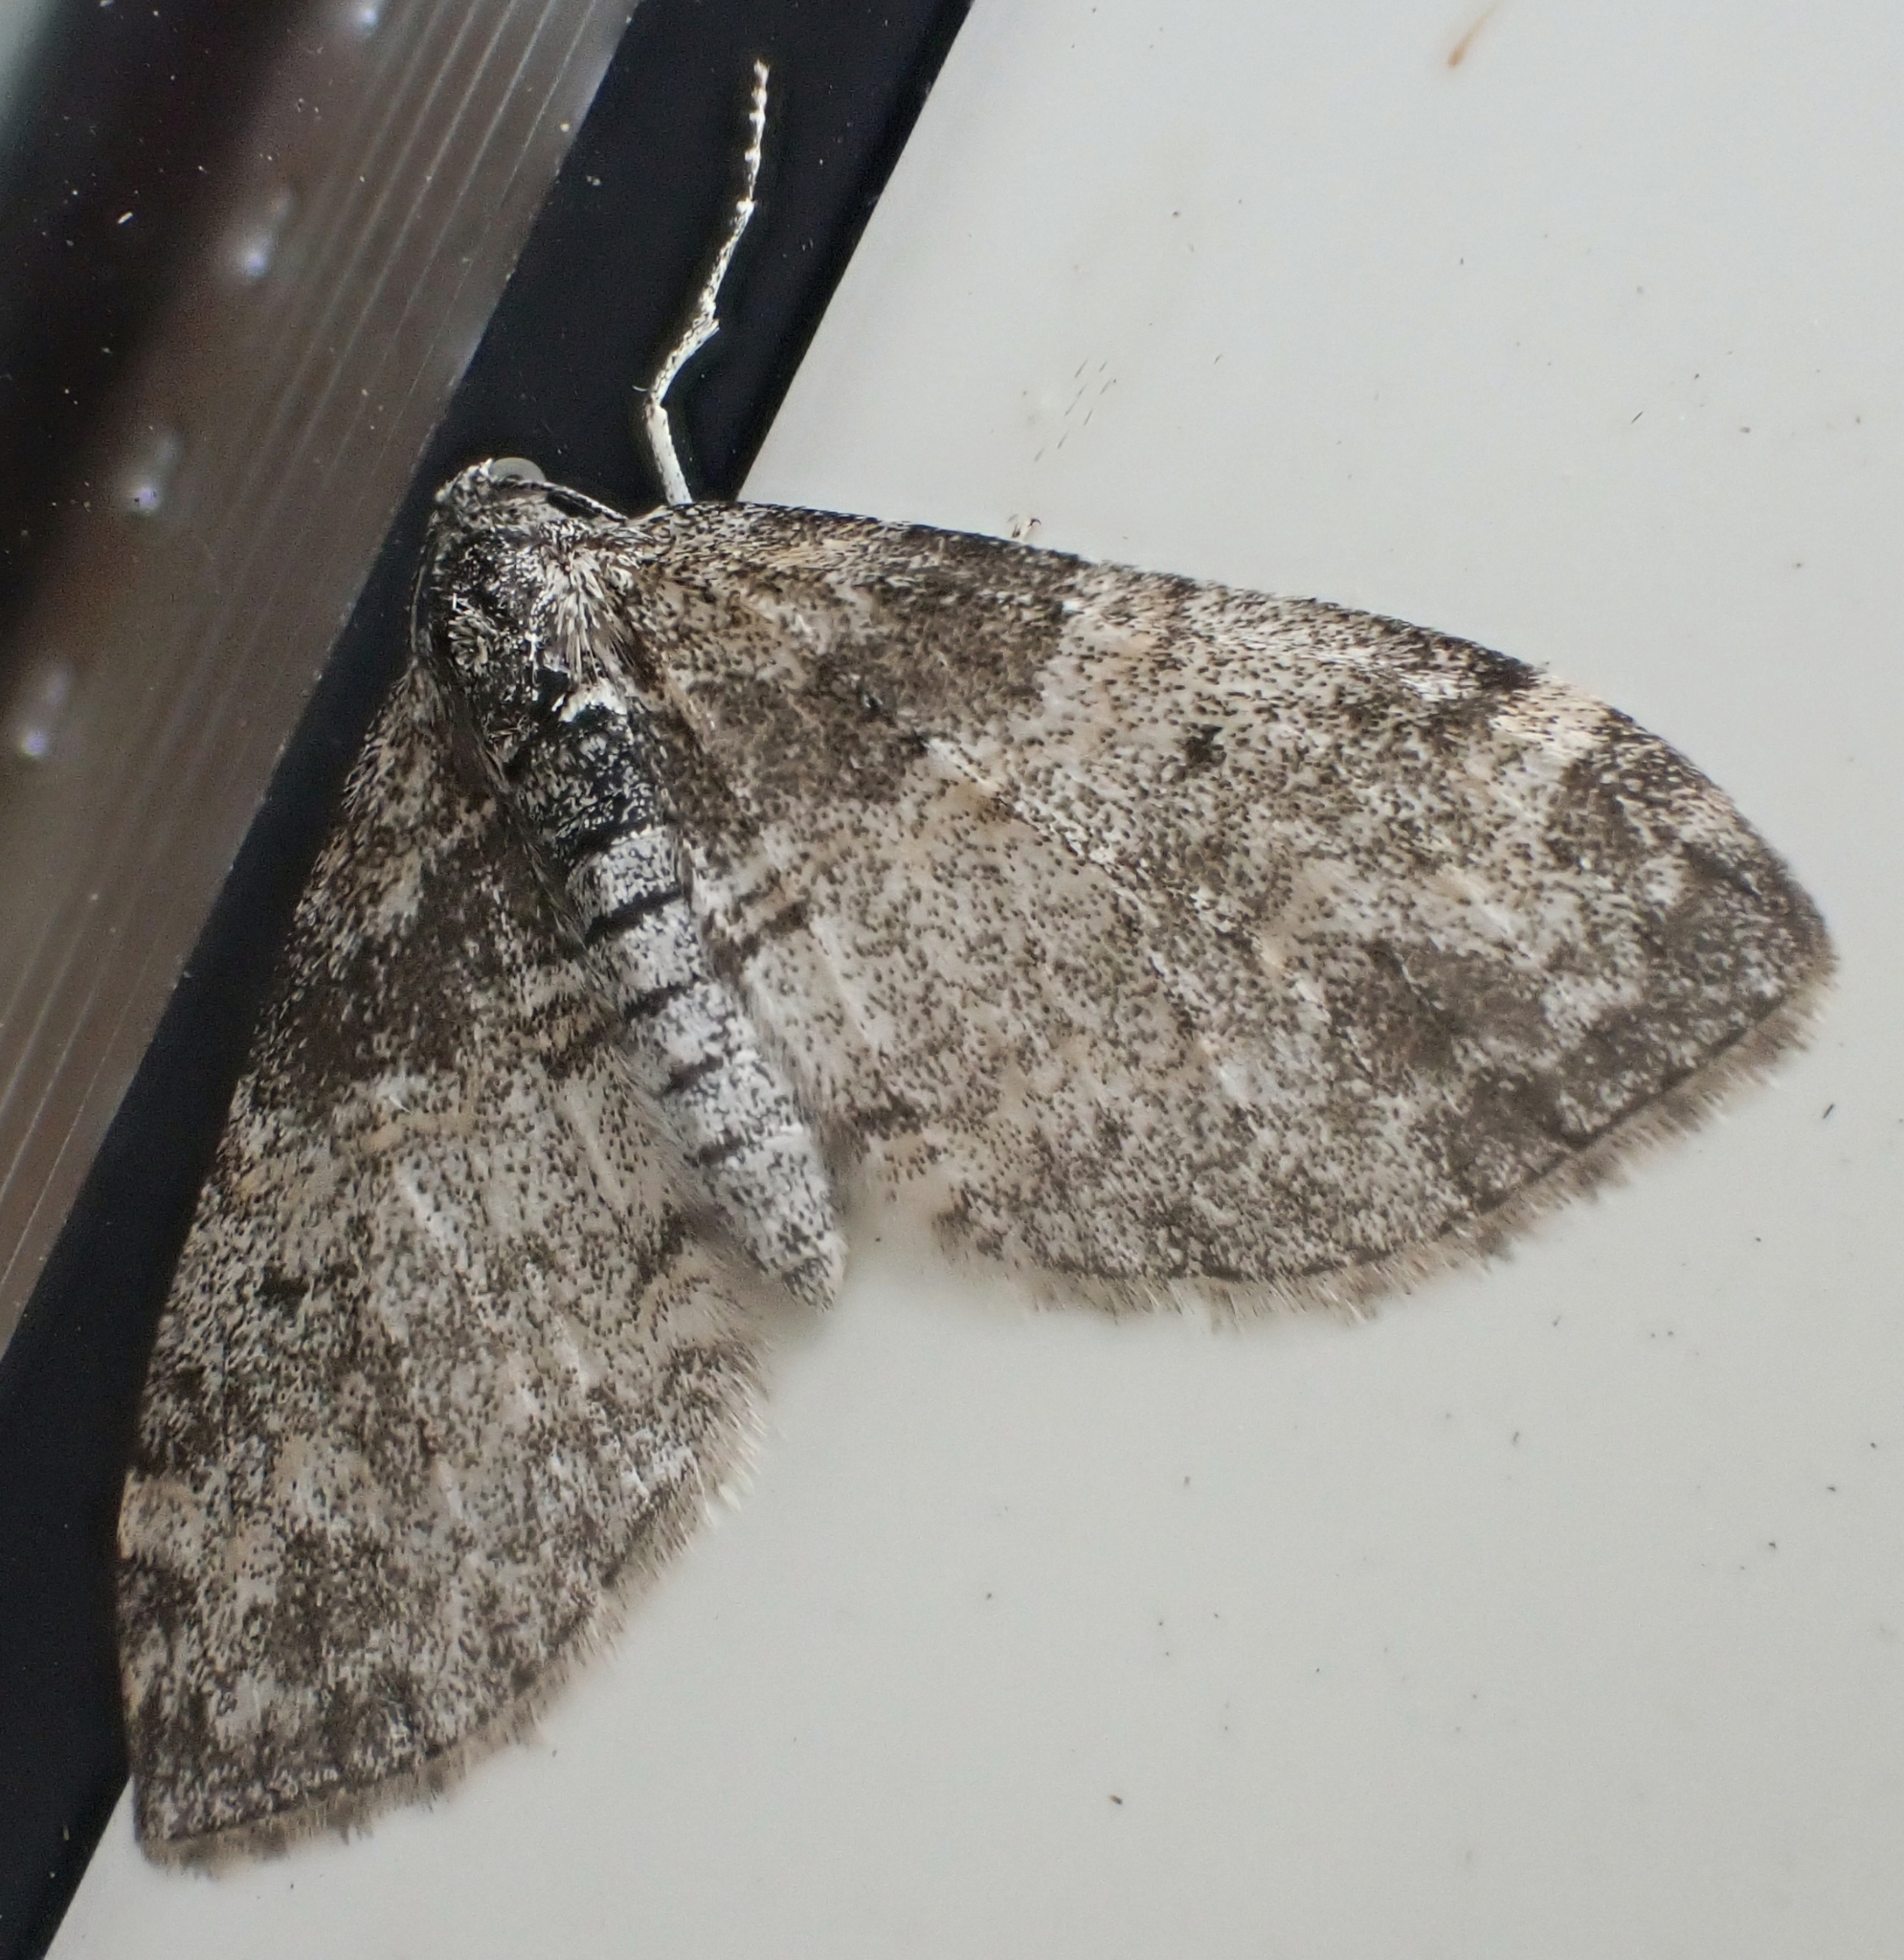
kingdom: Animalia
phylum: Arthropoda
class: Insecta
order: Lepidoptera
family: Geometridae
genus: Lobophora
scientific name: Lobophora halterata
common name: Seraphim
